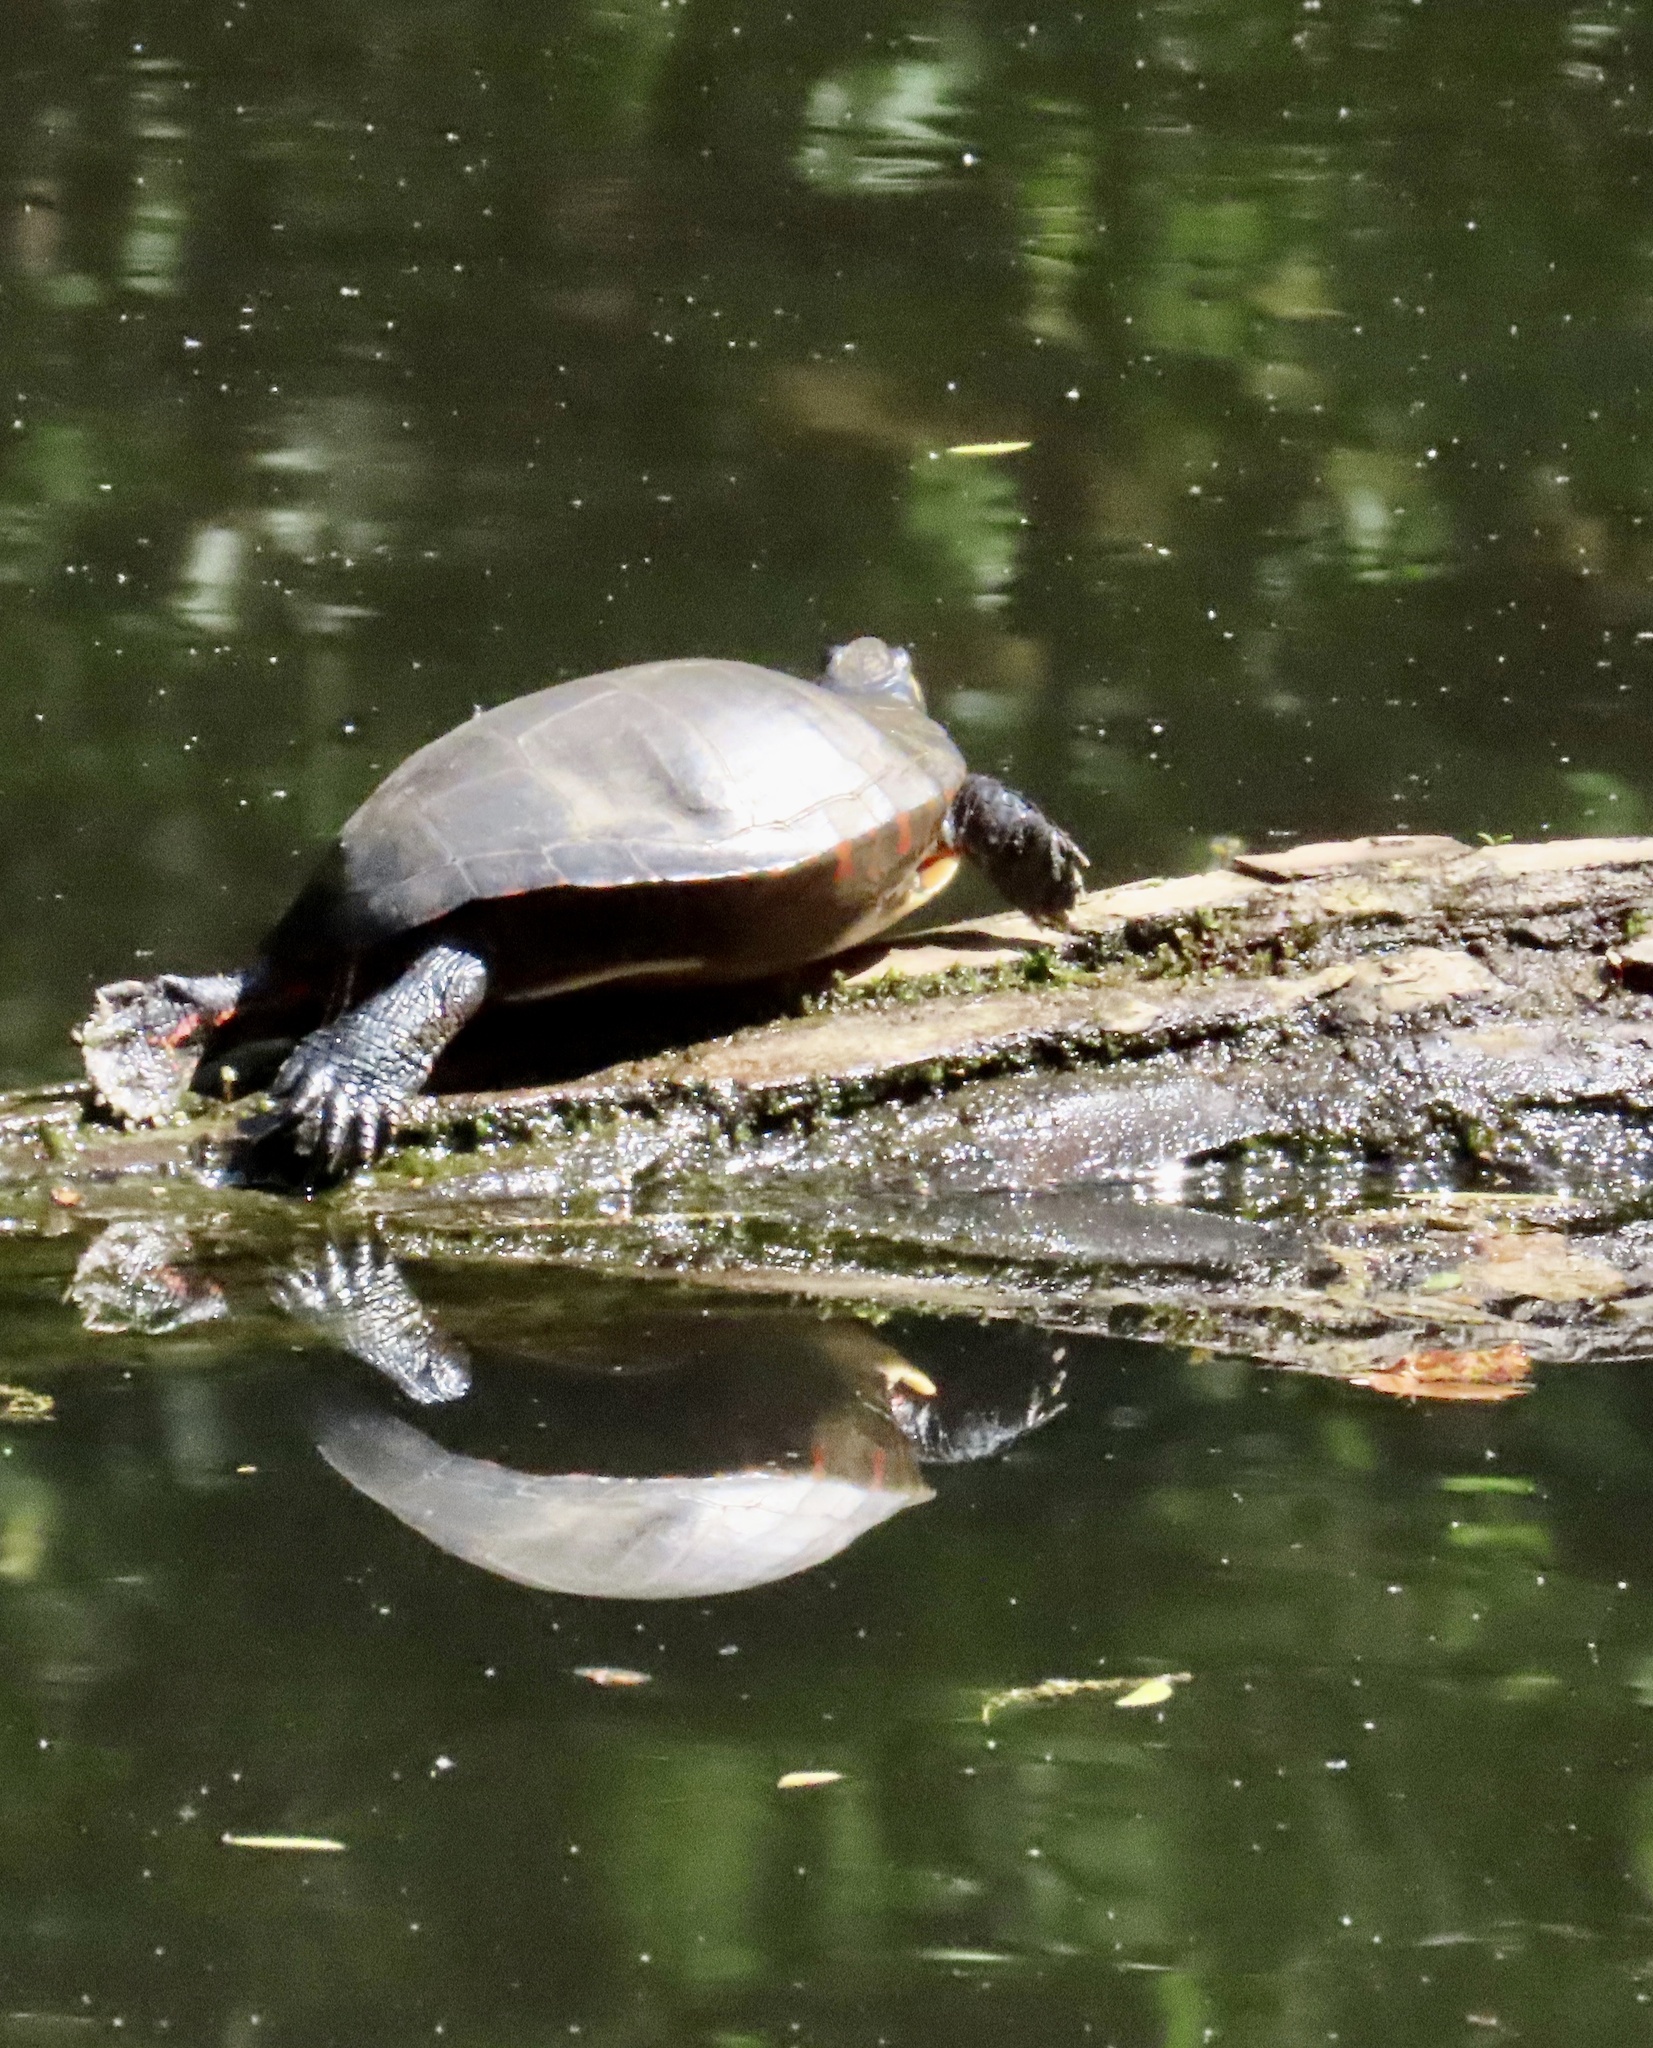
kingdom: Animalia
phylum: Chordata
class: Testudines
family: Emydidae
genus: Chrysemys
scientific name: Chrysemys picta
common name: Painted turtle
